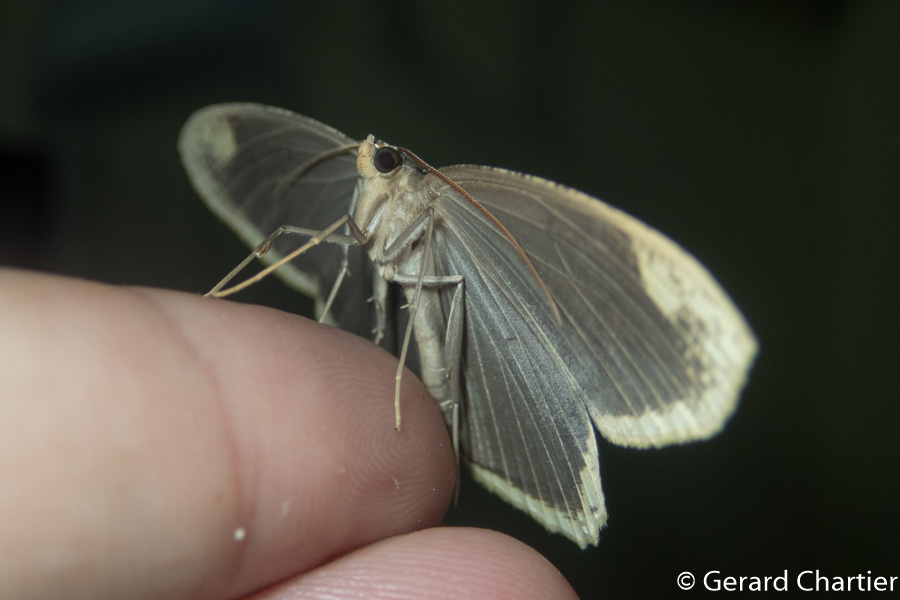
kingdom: Animalia
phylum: Arthropoda
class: Insecta
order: Lepidoptera
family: Geometridae
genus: Pareumelea
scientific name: Pareumelea hortensiata
